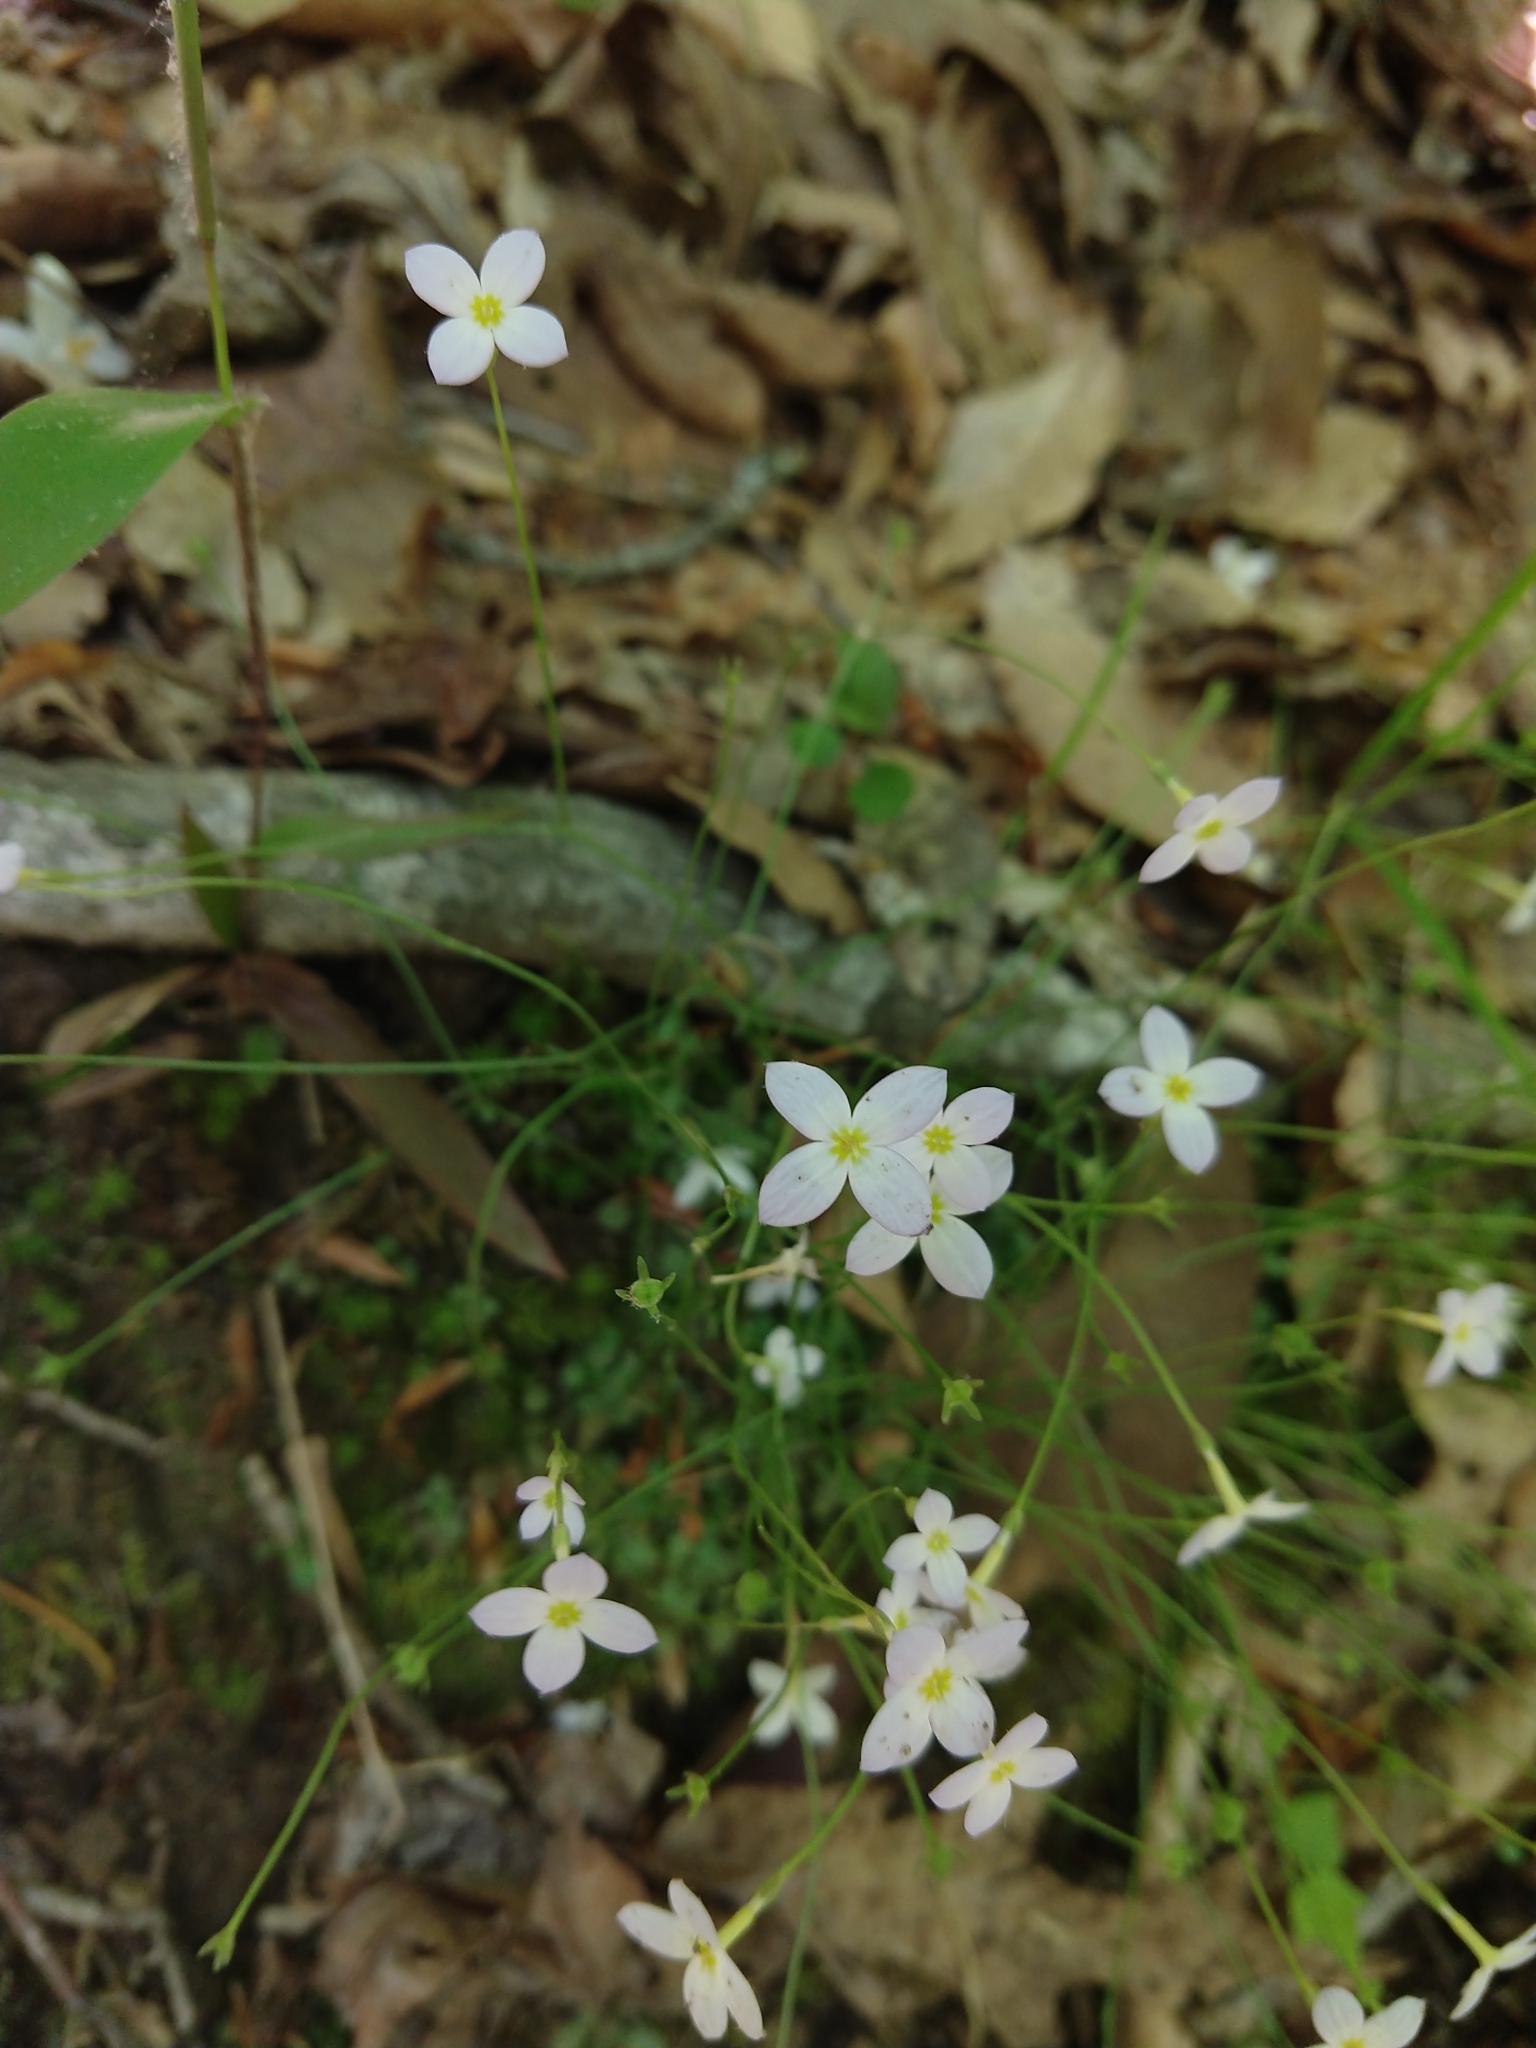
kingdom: Plantae
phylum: Tracheophyta
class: Magnoliopsida
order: Gentianales
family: Rubiaceae
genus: Houstonia
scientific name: Houstonia caerulea
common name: Bluets
